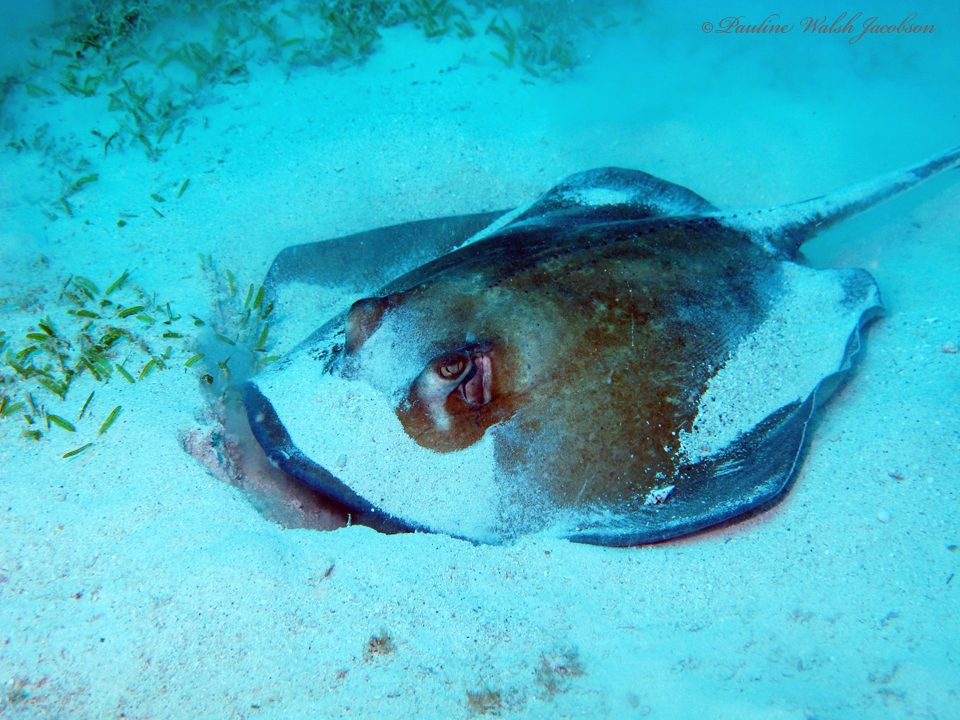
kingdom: Animalia
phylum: Chordata
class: Elasmobranchii
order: Myliobatiformes
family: Dasyatidae
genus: Hypanus
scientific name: Hypanus americanus
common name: Southern stingray
